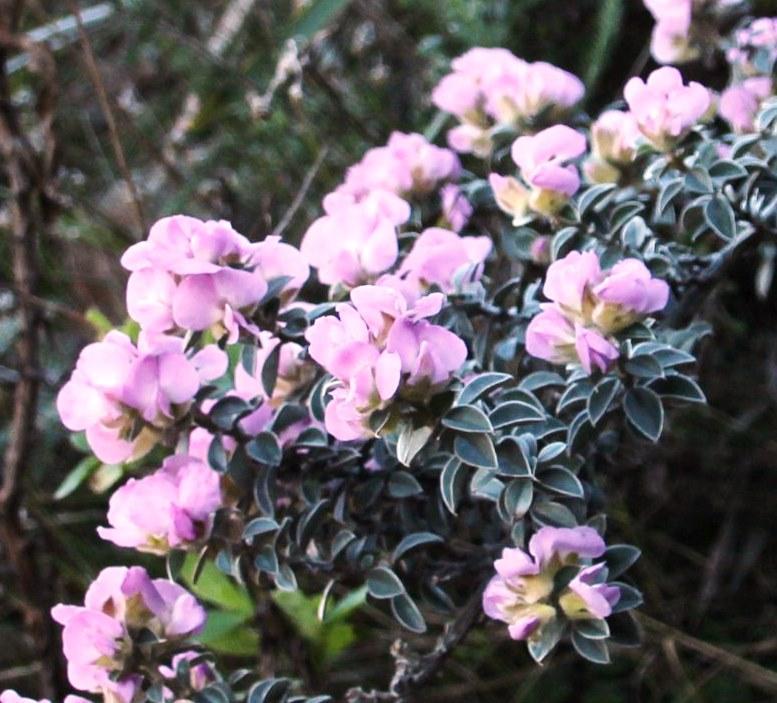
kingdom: Plantae
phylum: Tracheophyta
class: Magnoliopsida
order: Fabales
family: Fabaceae
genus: Podalyria
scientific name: Podalyria variabilis
